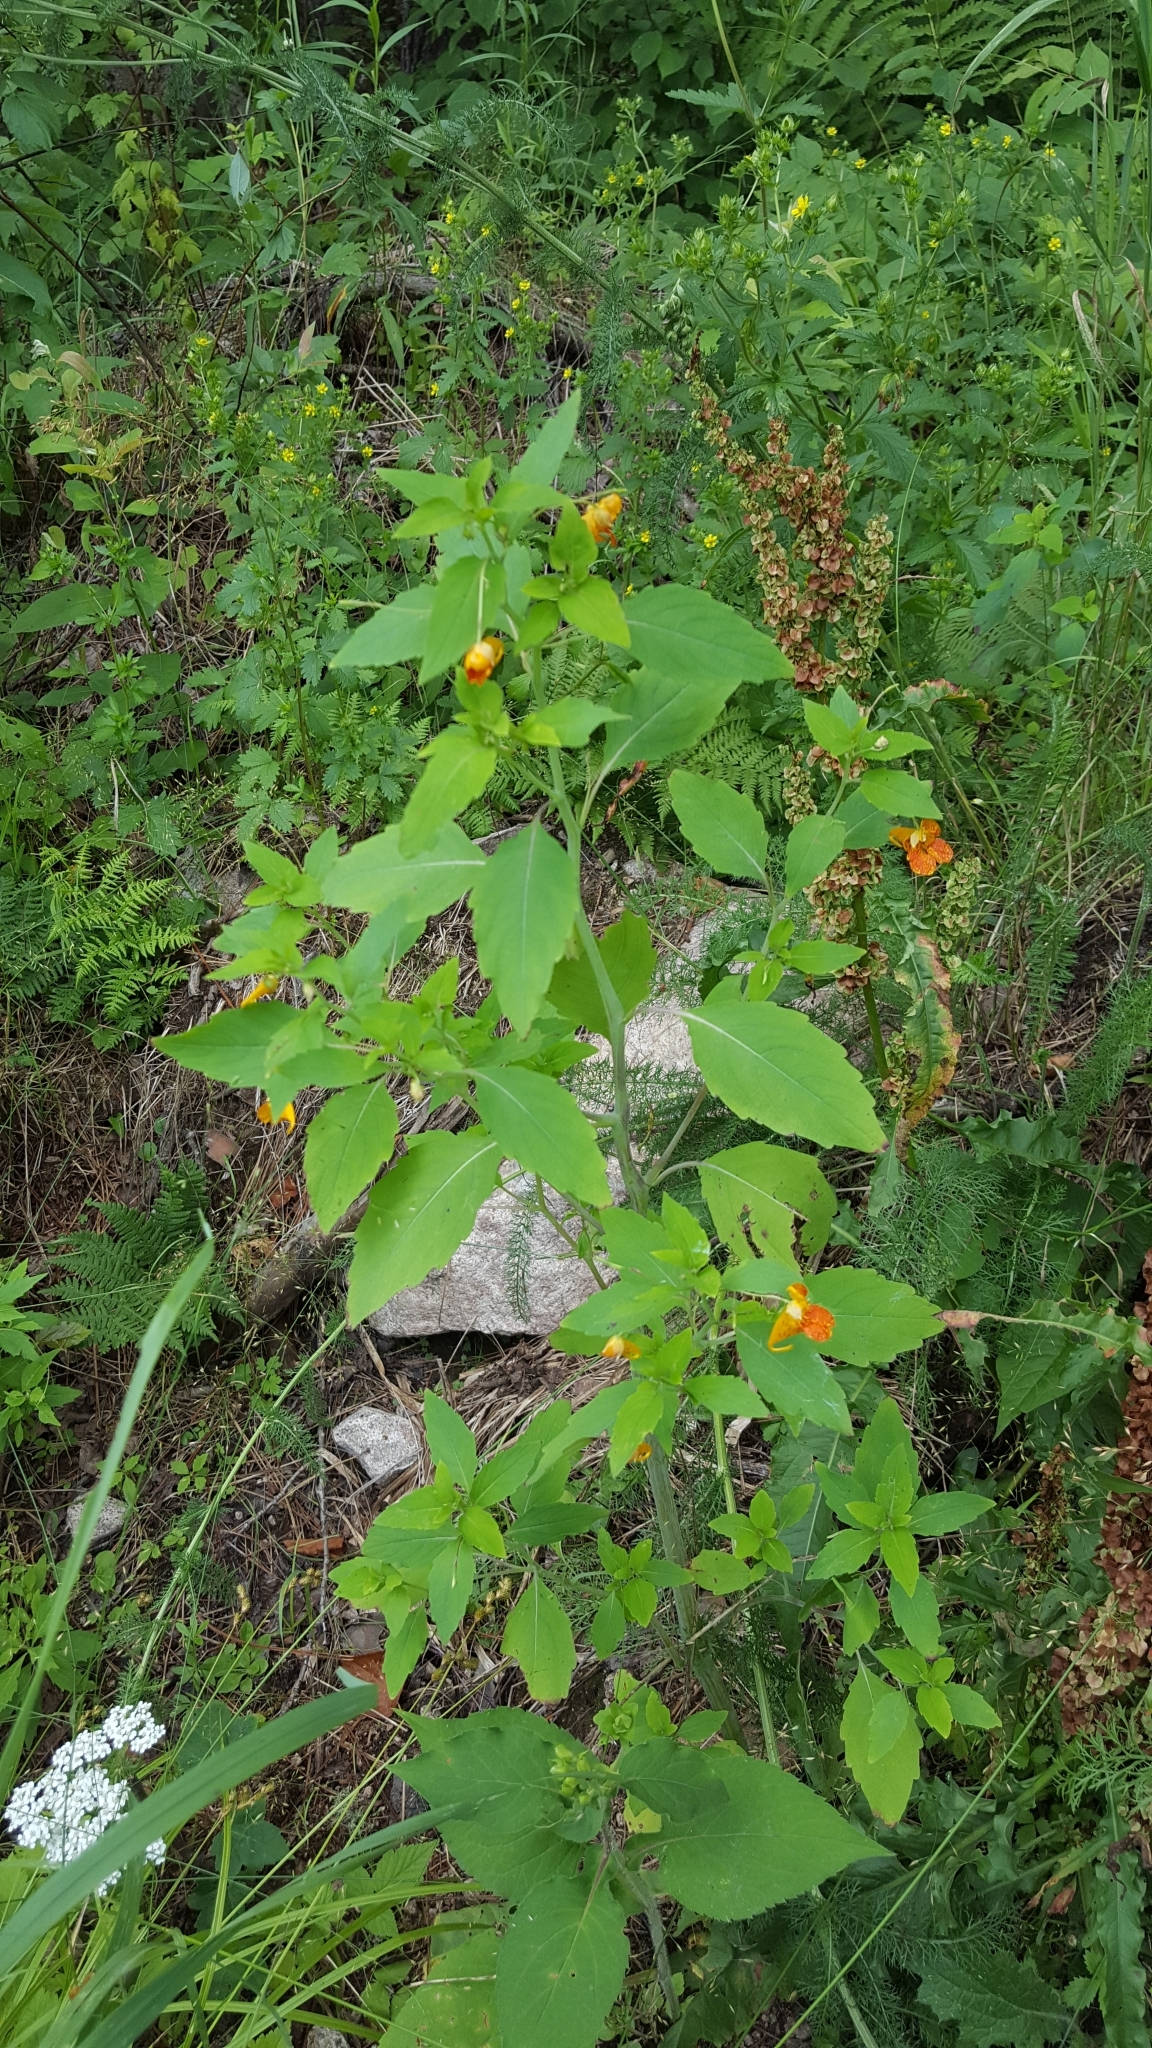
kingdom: Plantae
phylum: Tracheophyta
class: Magnoliopsida
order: Ericales
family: Balsaminaceae
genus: Impatiens
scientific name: Impatiens capensis
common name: Orange balsam
